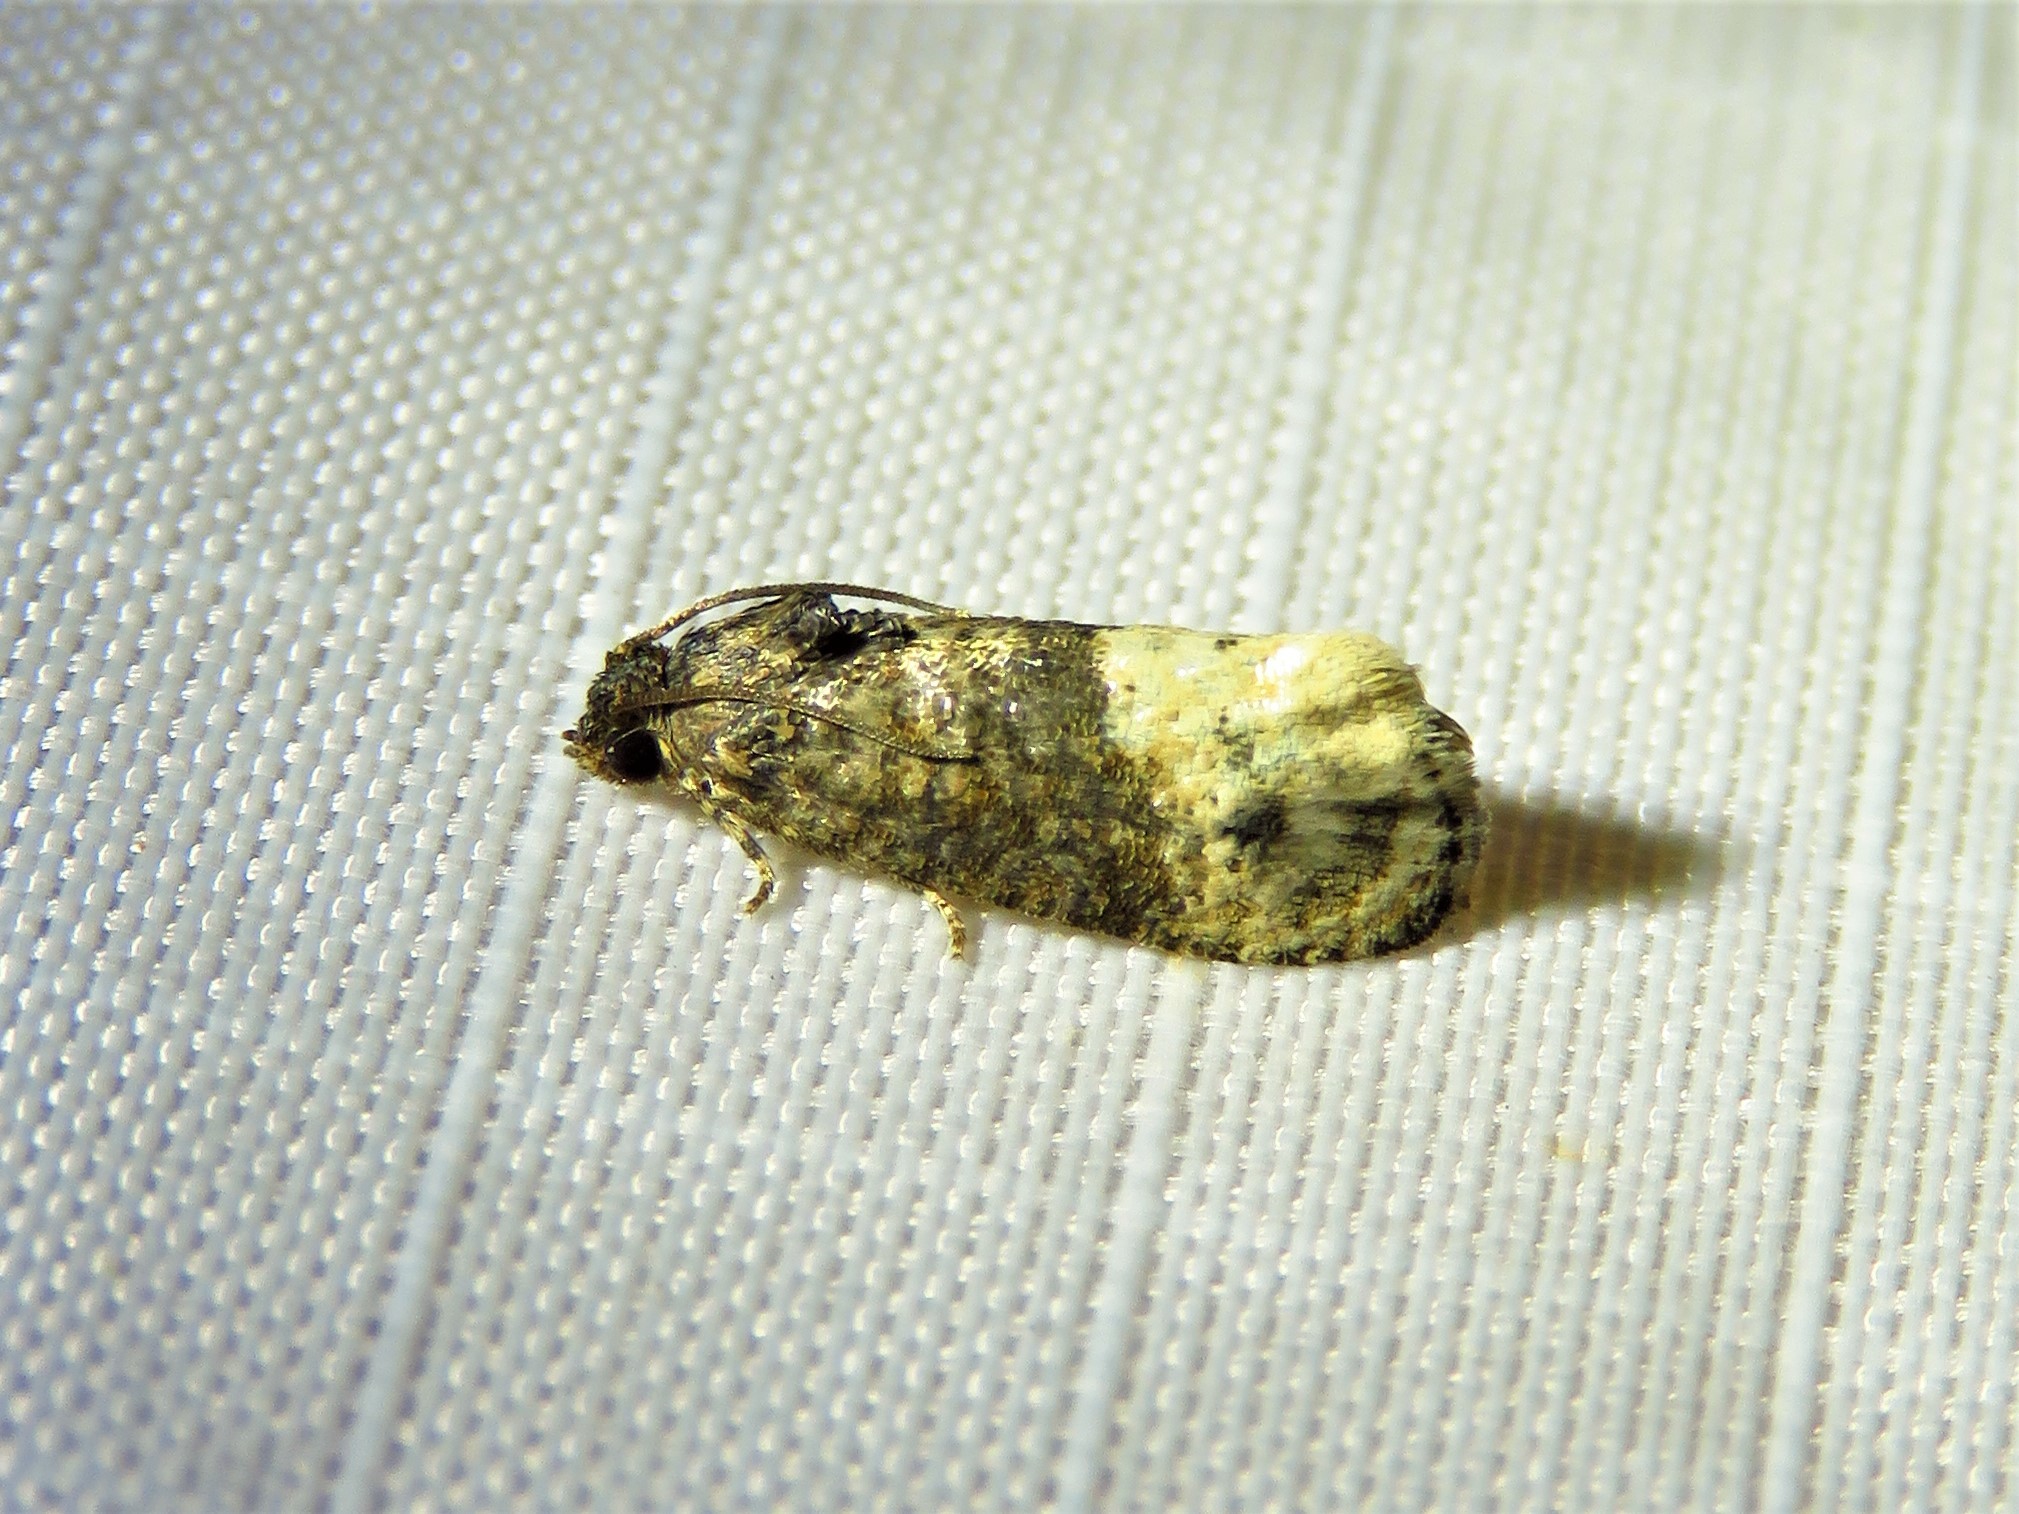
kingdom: Animalia
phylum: Arthropoda
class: Insecta
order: Lepidoptera
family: Tortricidae
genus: Ecdytolopha
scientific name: Ecdytolopha mana
